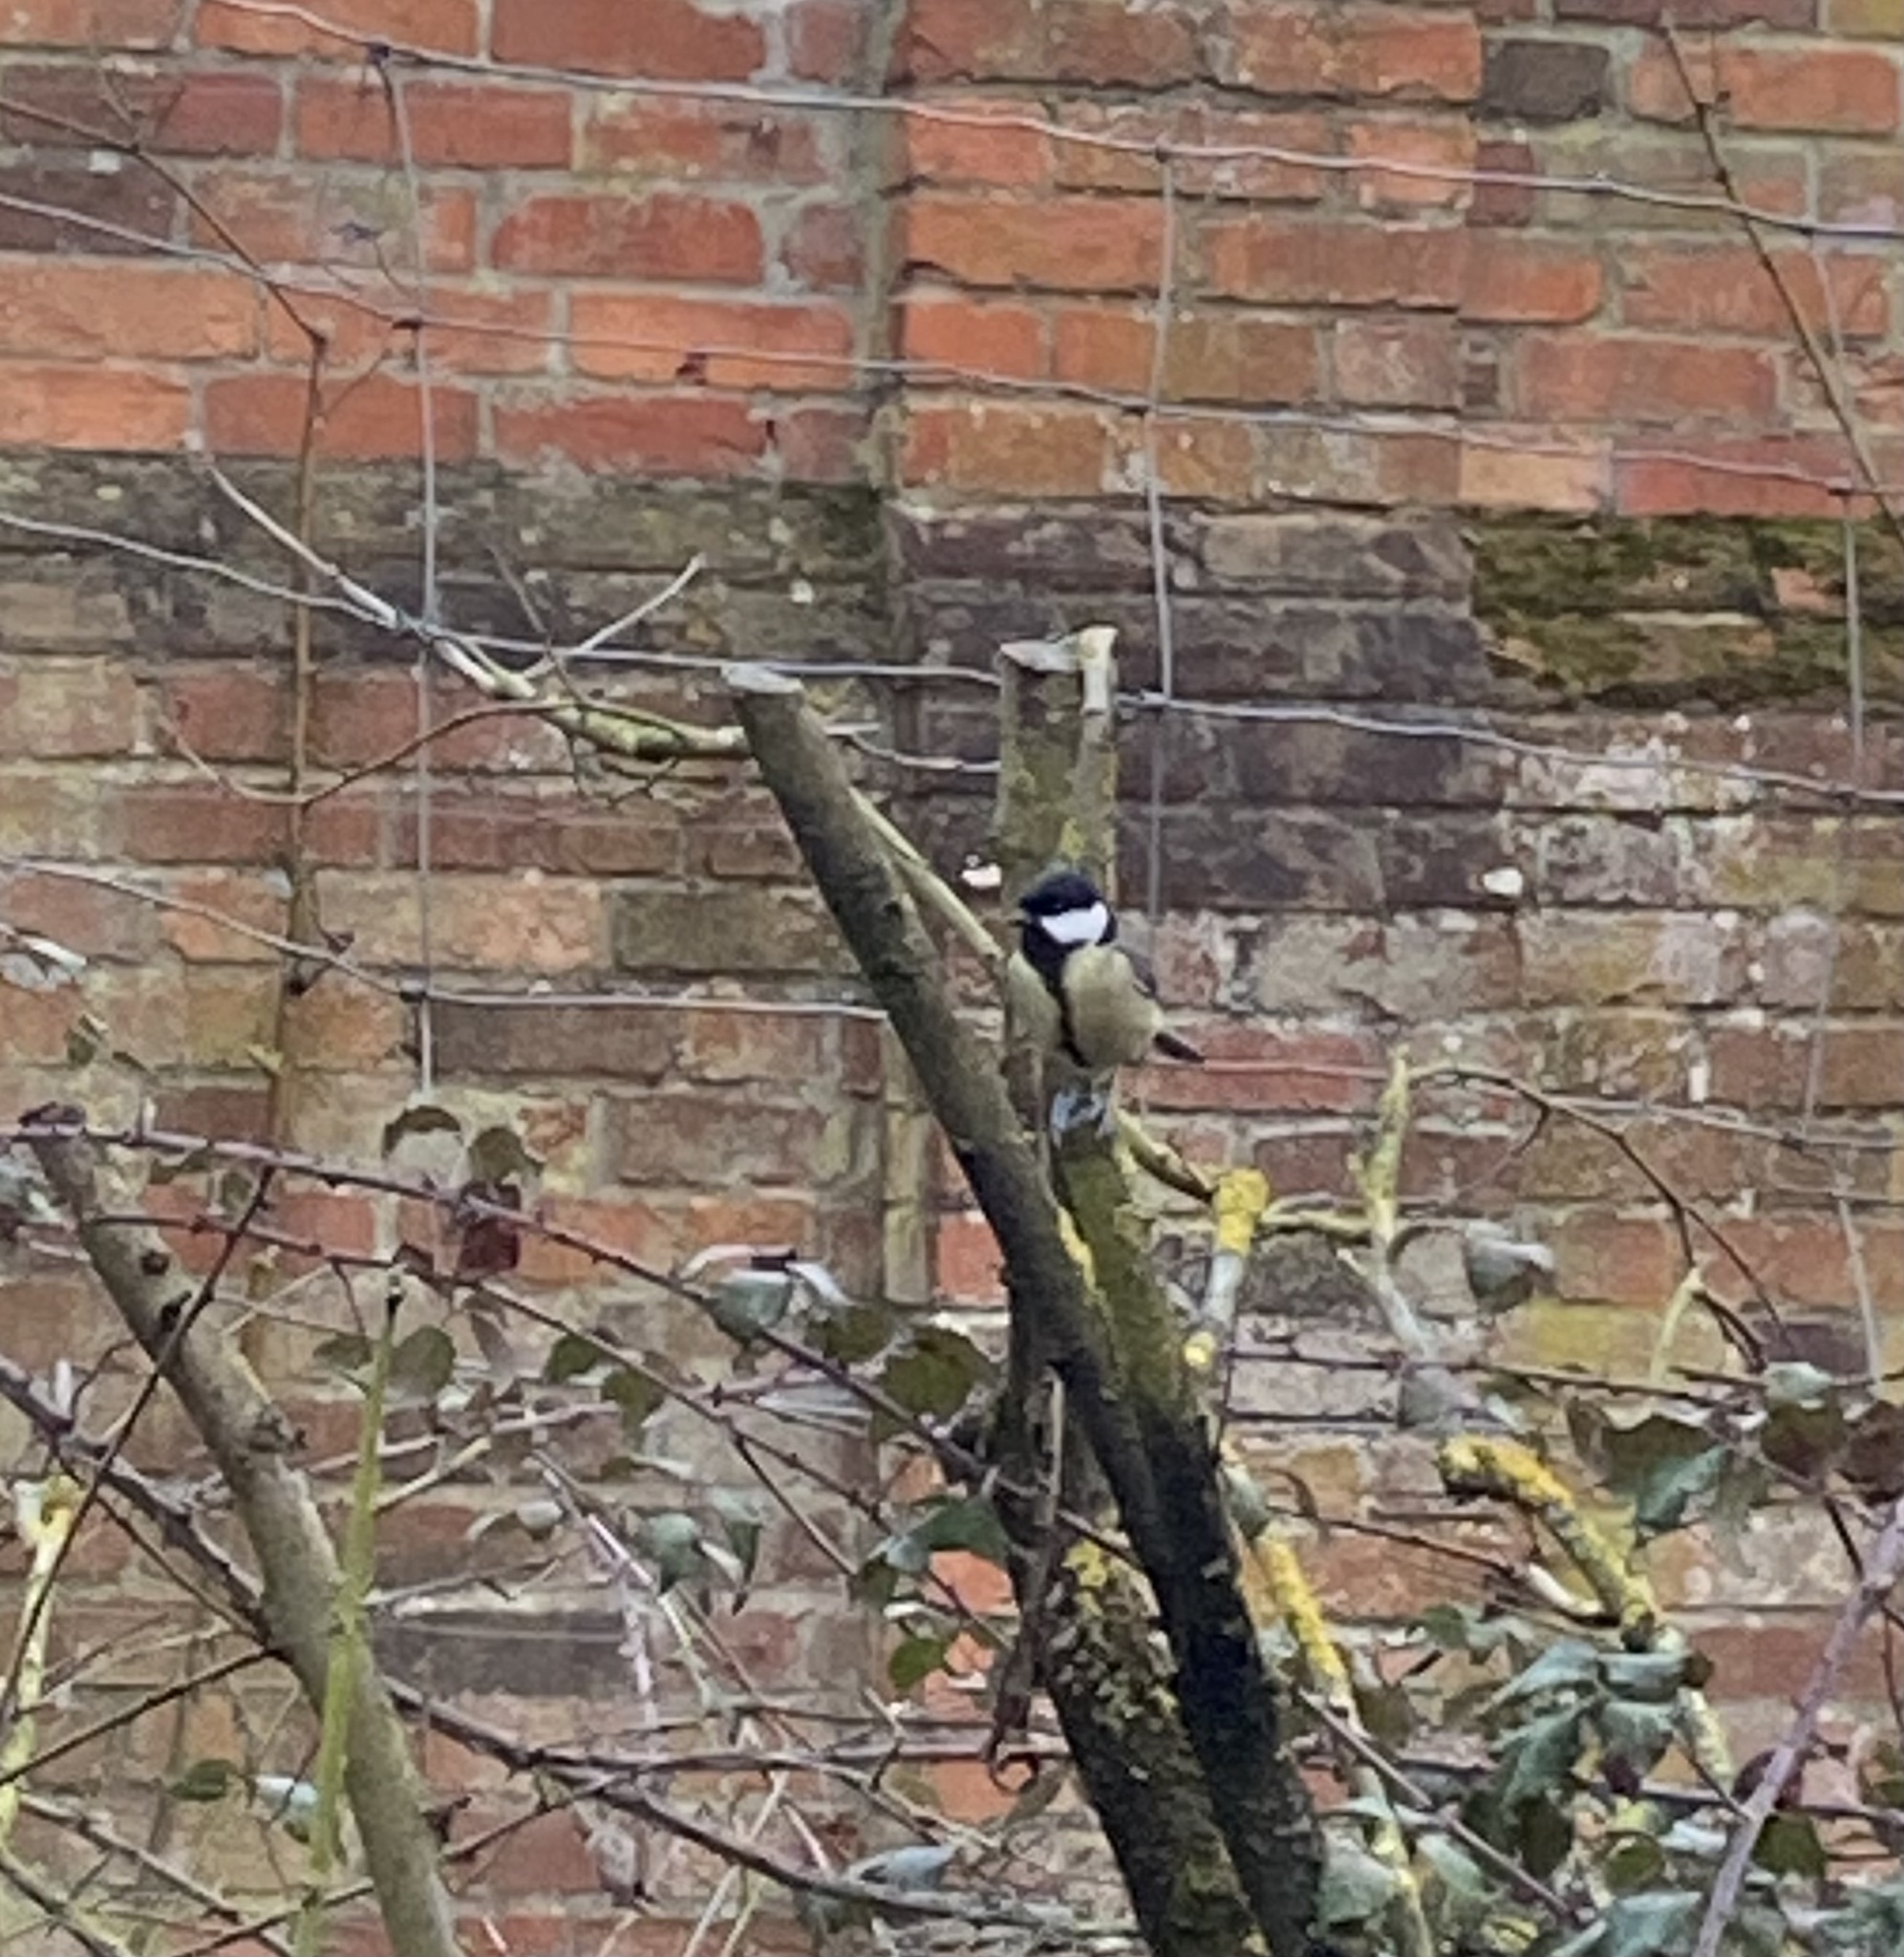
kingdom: Animalia
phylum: Chordata
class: Aves
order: Passeriformes
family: Paridae
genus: Parus
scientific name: Parus major
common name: Great tit
